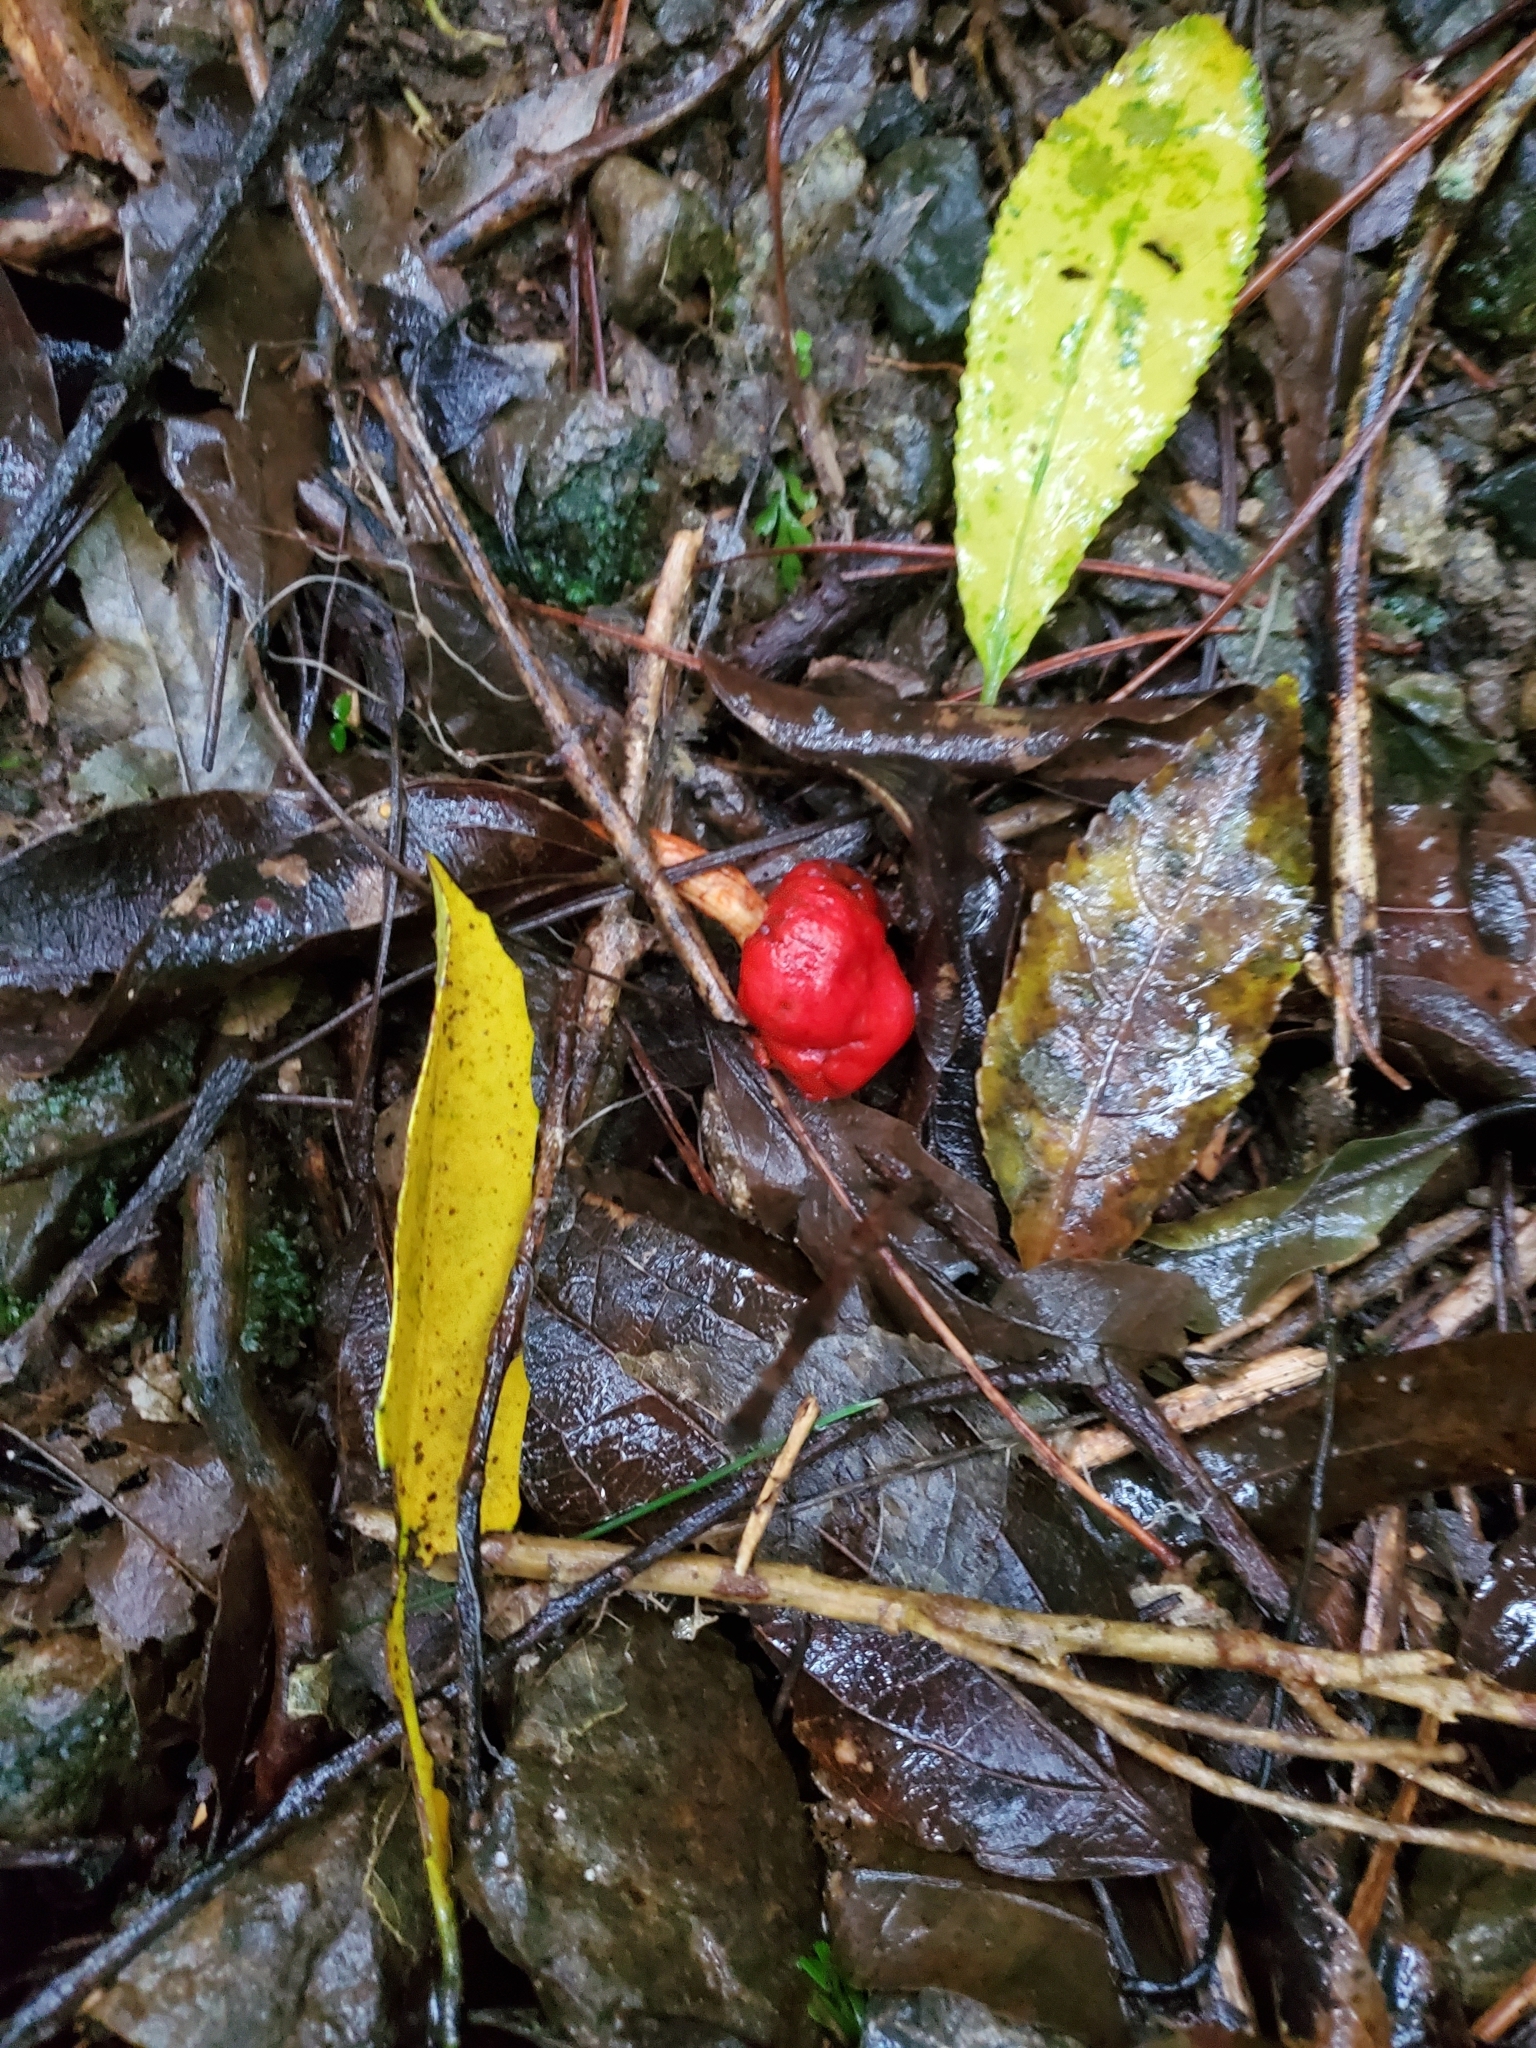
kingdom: Fungi
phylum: Basidiomycota
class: Agaricomycetes
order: Agaricales
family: Strophariaceae
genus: Leratiomyces
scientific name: Leratiomyces erythrocephalus
